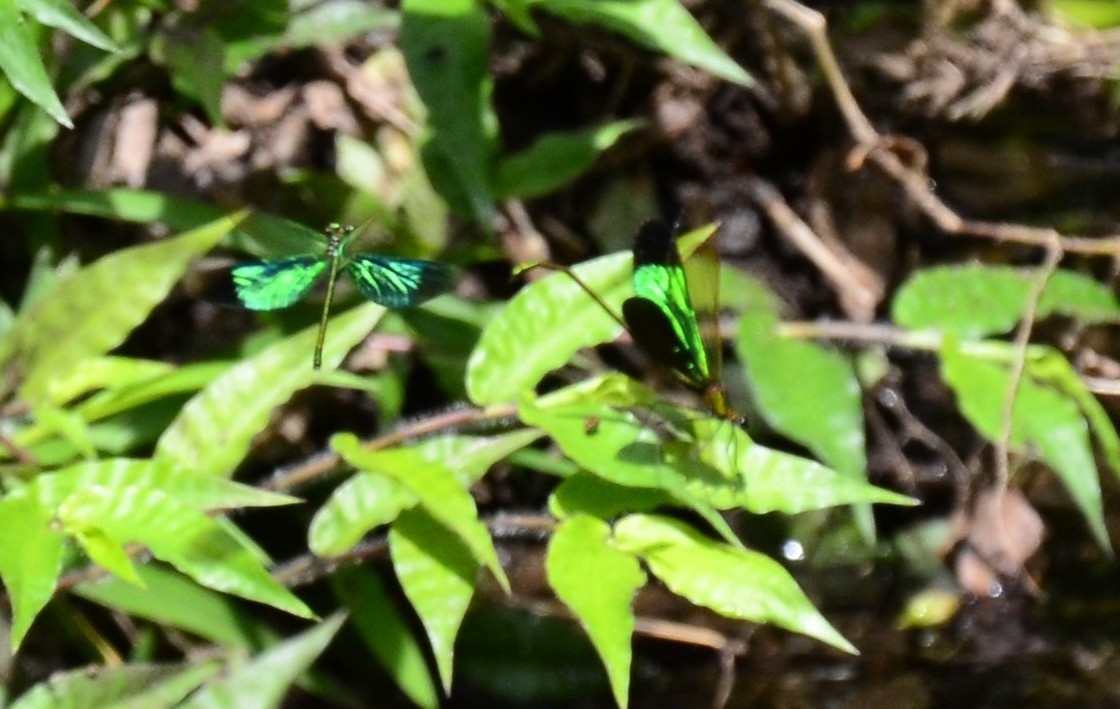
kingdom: Animalia
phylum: Arthropoda
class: Insecta
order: Odonata
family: Calopterygidae
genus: Neurobasis
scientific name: Neurobasis chinensis
